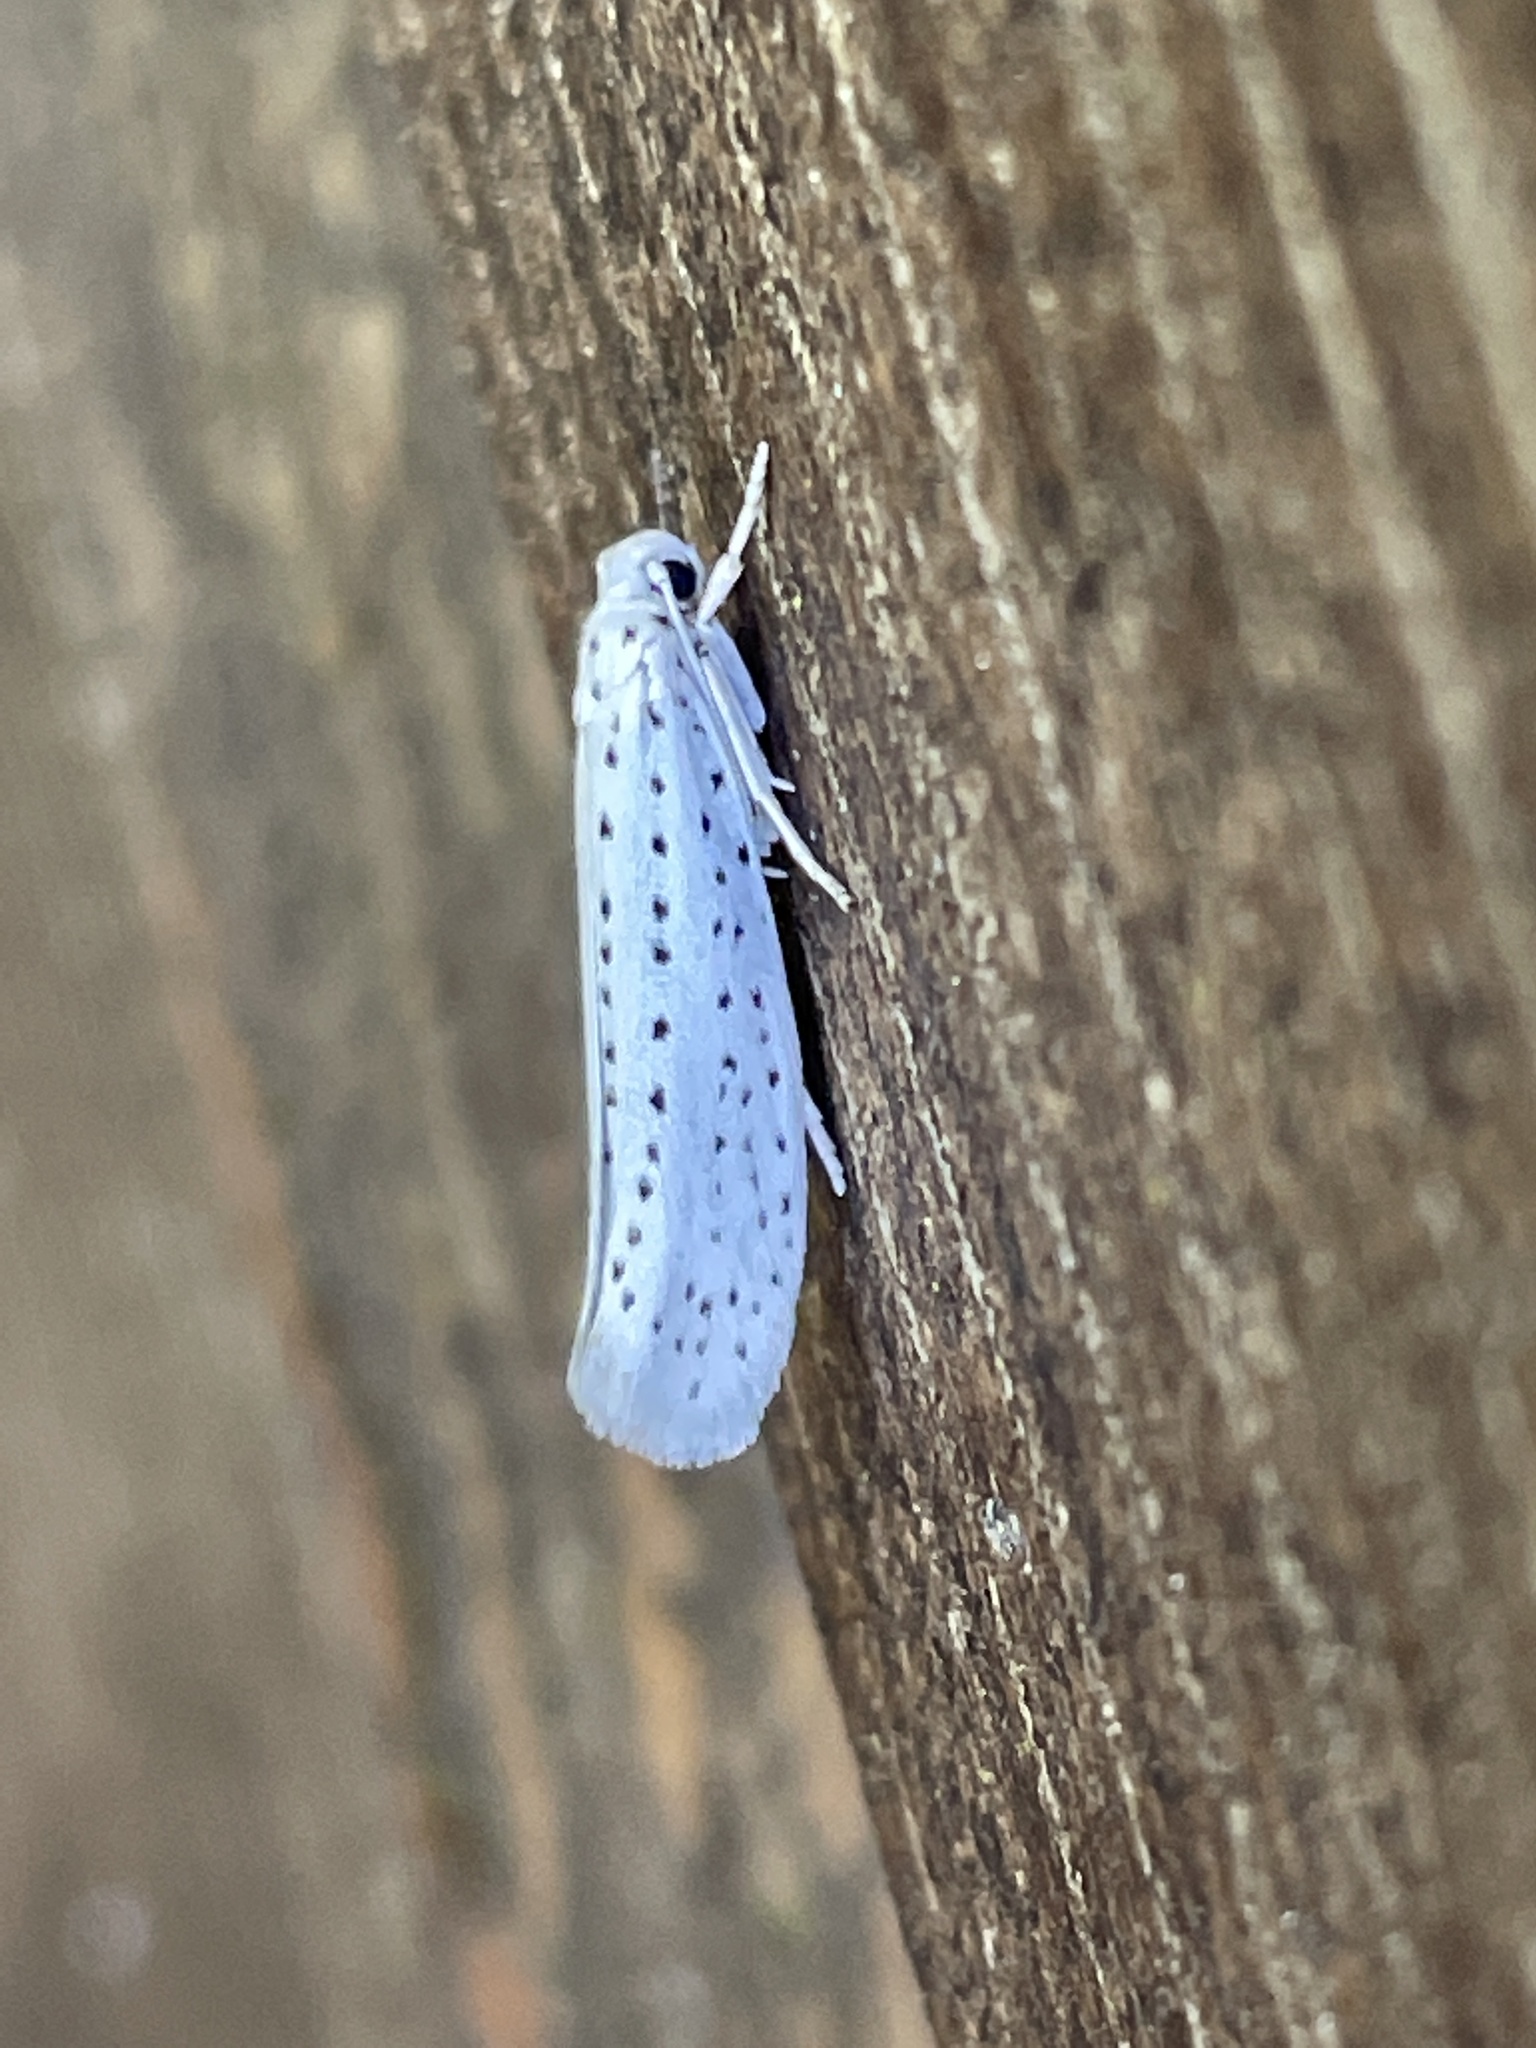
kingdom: Animalia
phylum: Arthropoda
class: Insecta
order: Lepidoptera
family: Yponomeutidae
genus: Yponomeuta
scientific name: Yponomeuta evonymella
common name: Bird-cherry ermine
